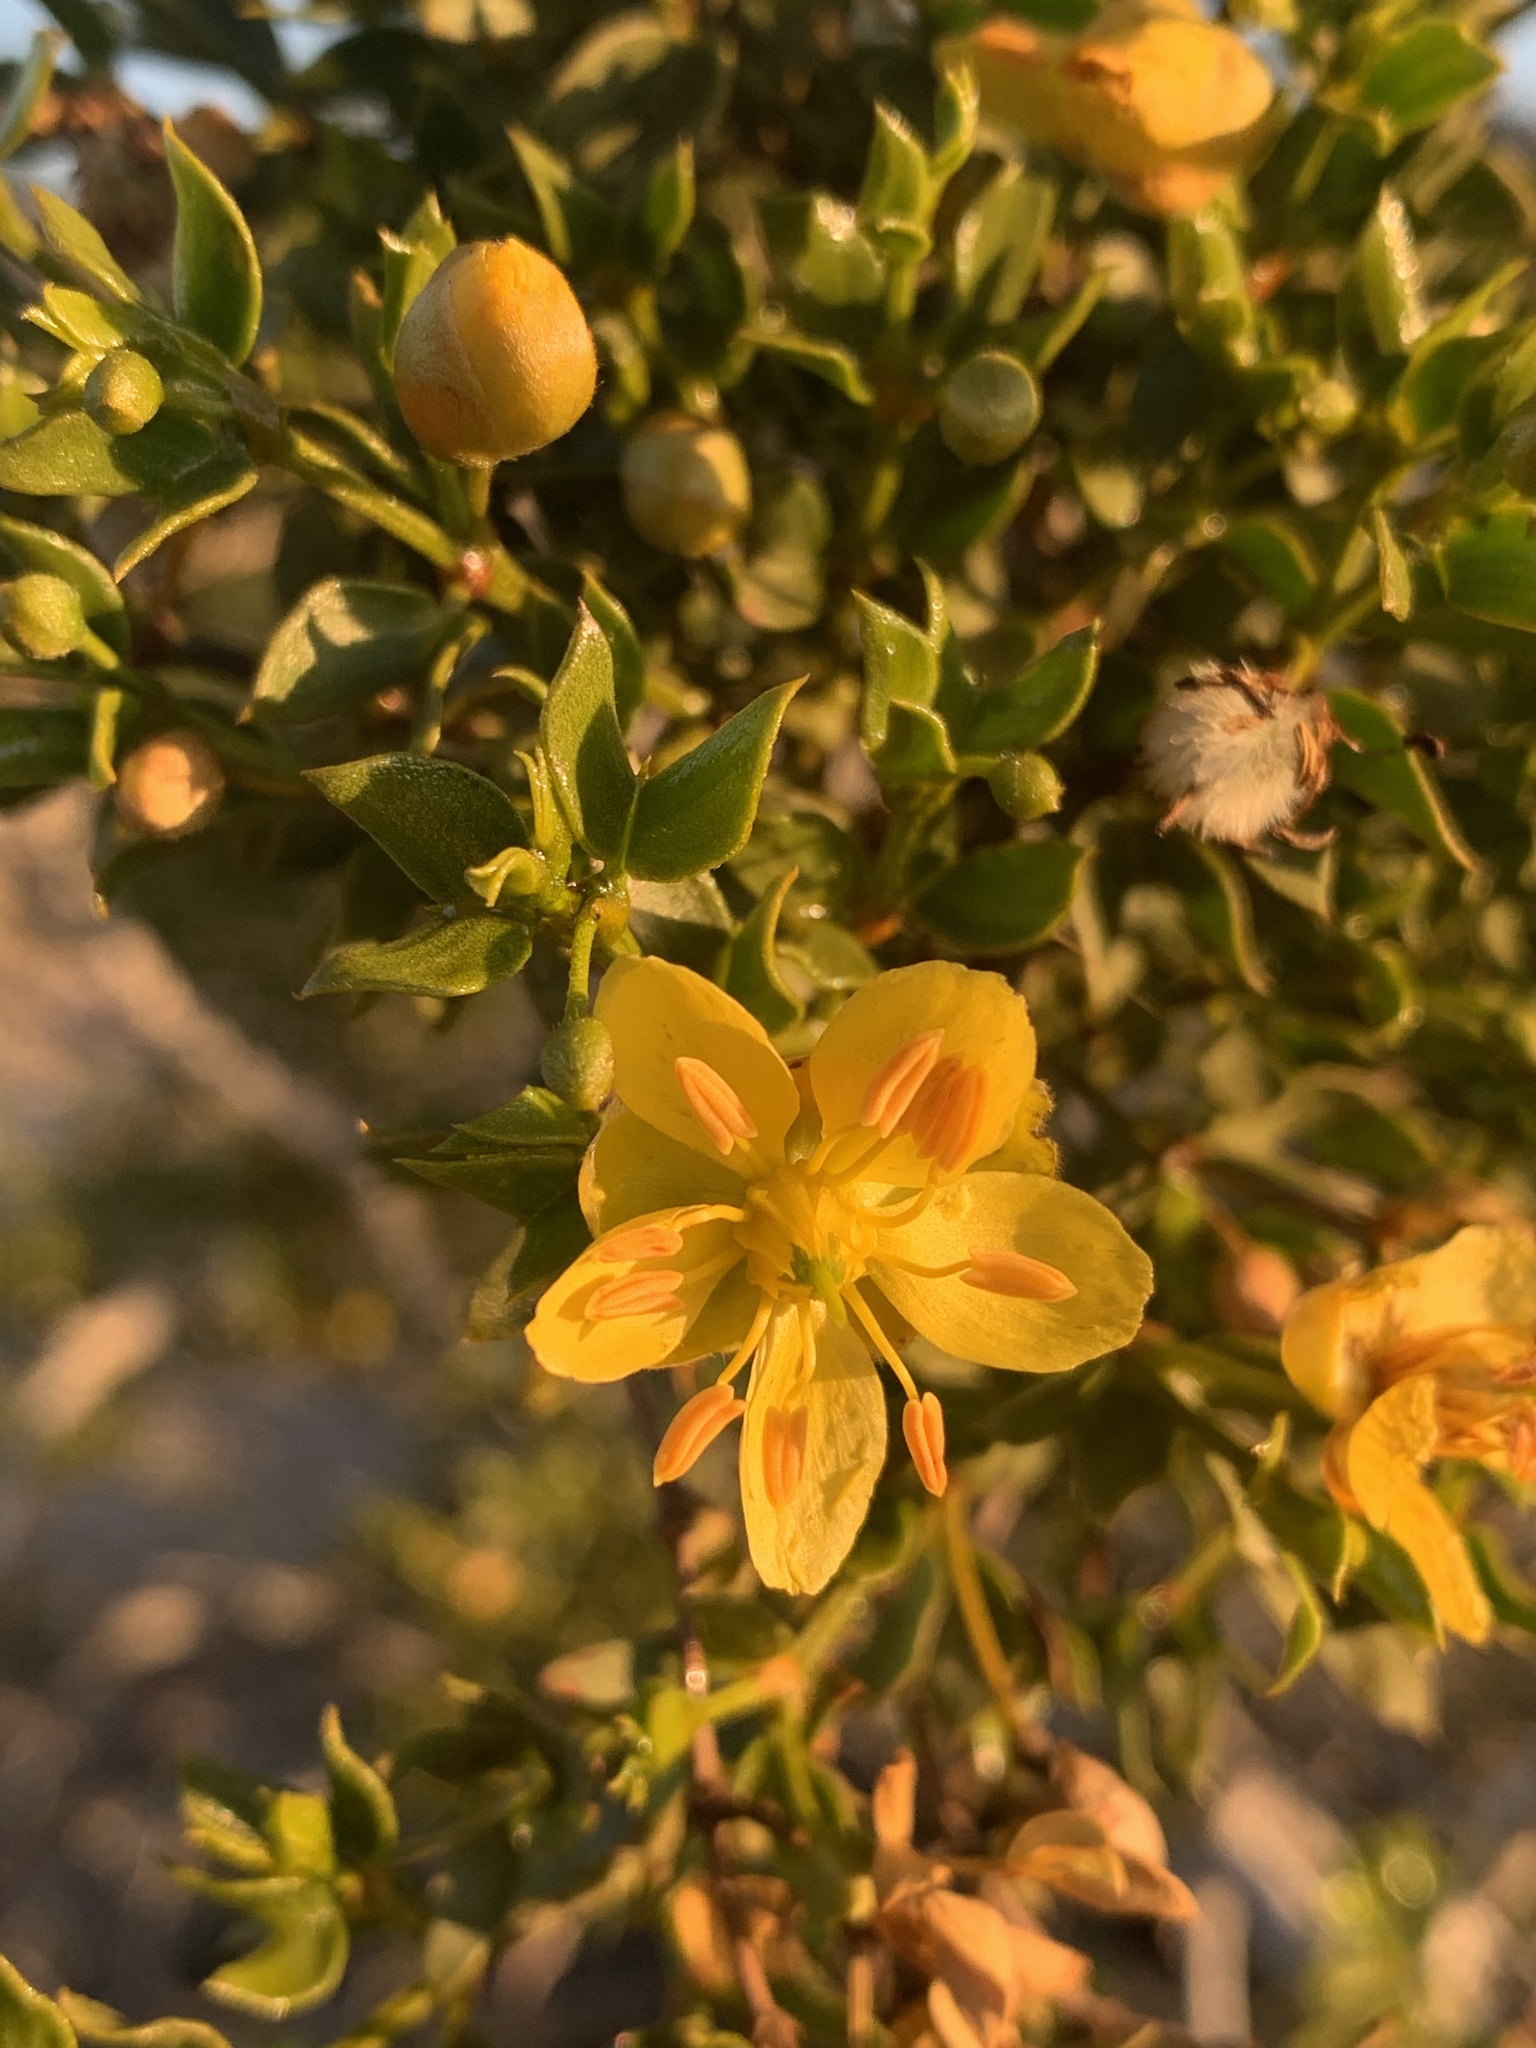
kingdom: Plantae
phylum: Tracheophyta
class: Magnoliopsida
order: Zygophyllales
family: Zygophyllaceae
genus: Larrea
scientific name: Larrea tridentata
